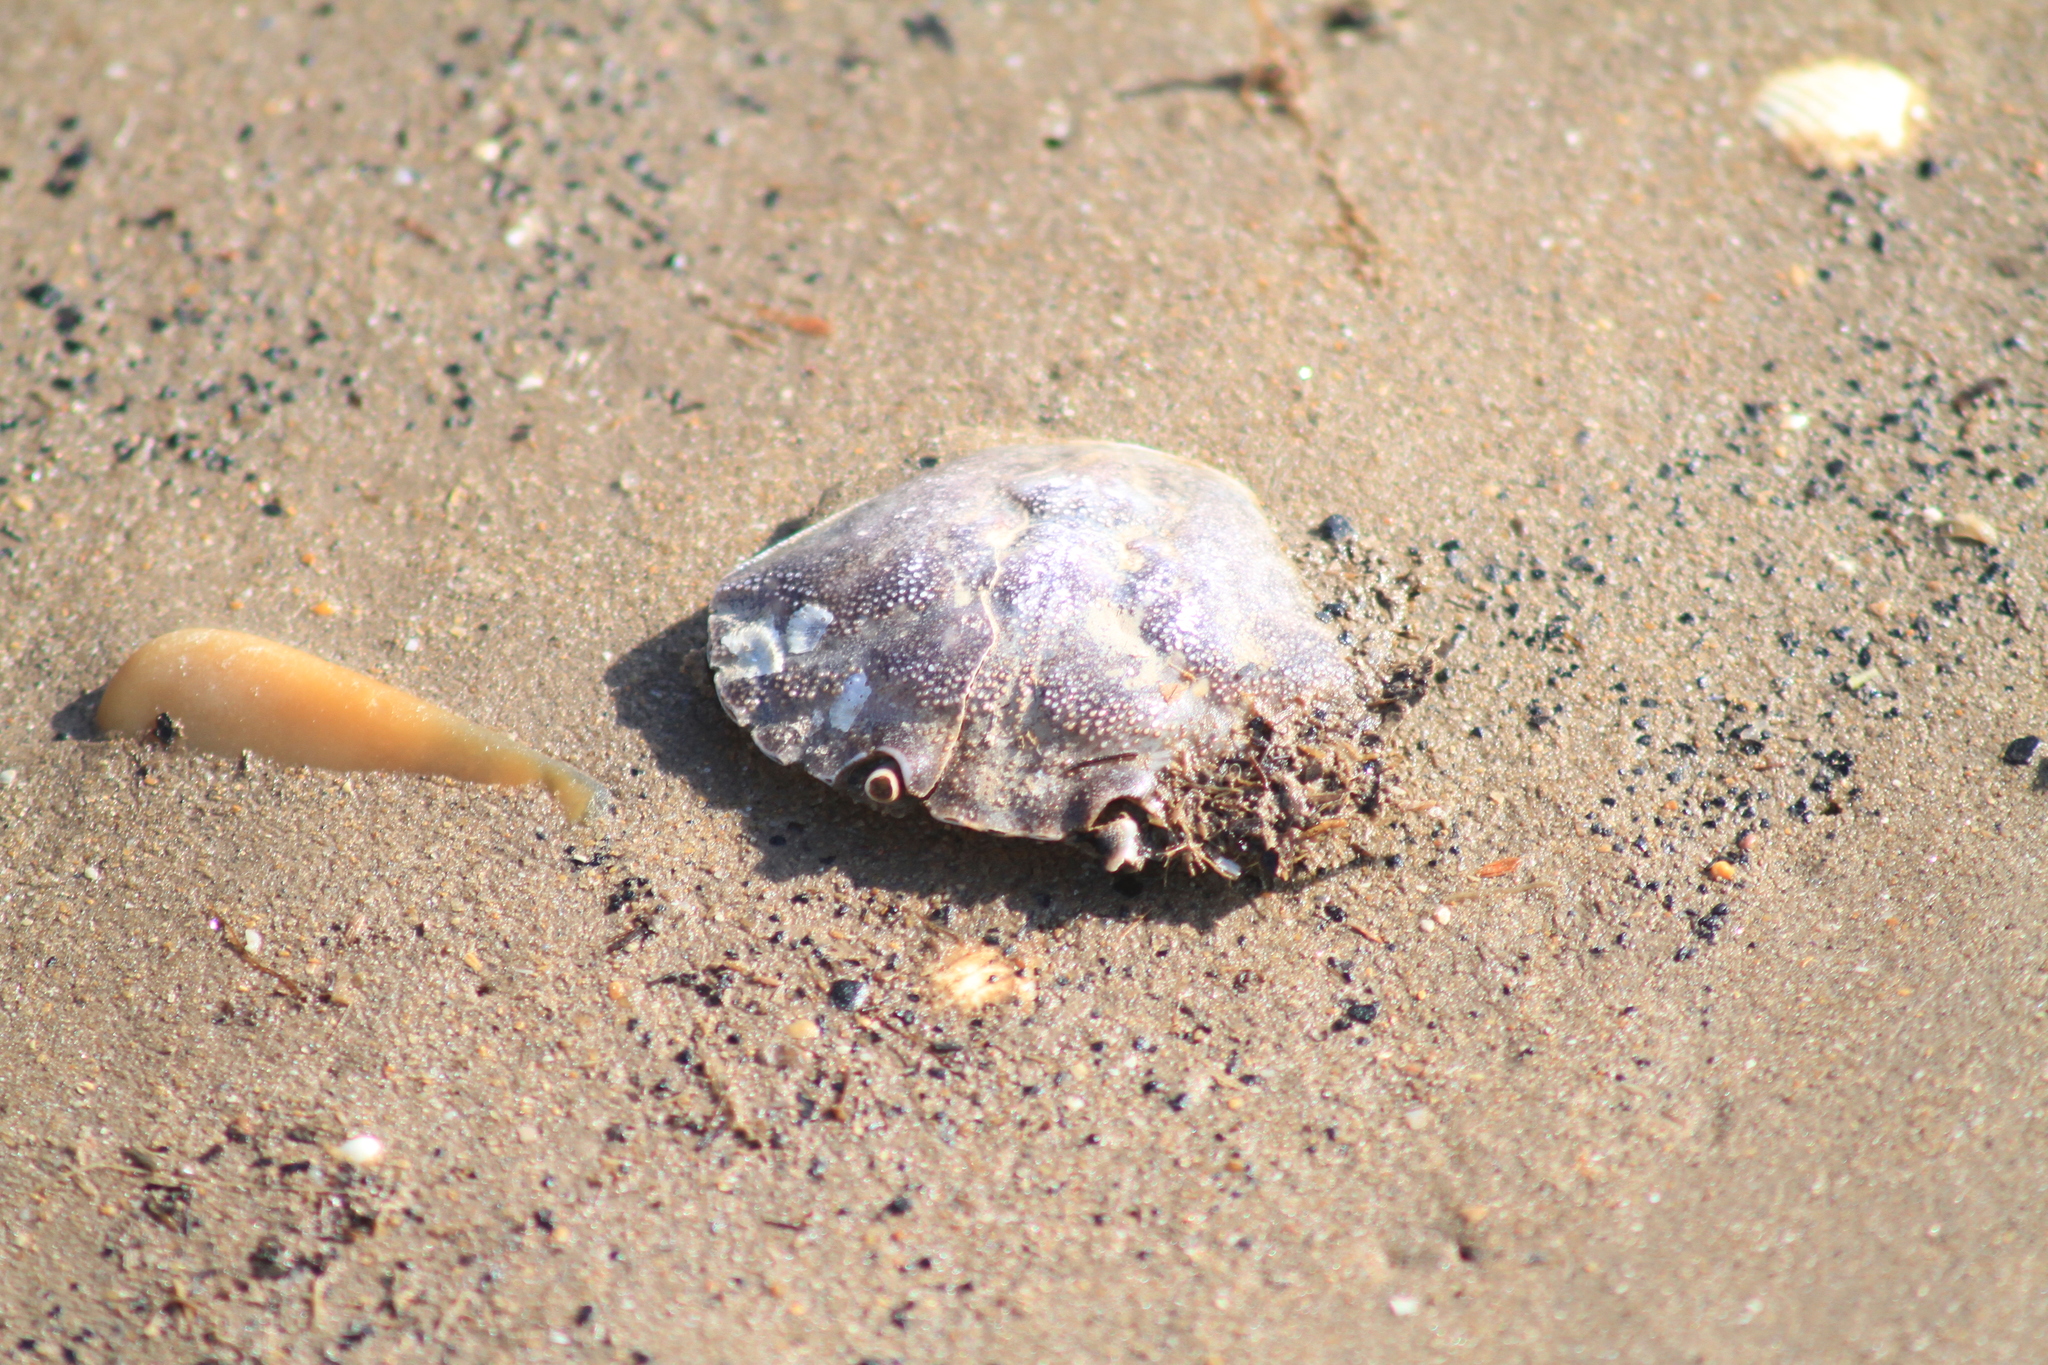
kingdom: Animalia
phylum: Arthropoda
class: Malacostraca
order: Decapoda
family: Carcinidae
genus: Carcinus
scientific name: Carcinus maenas
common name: European green crab
